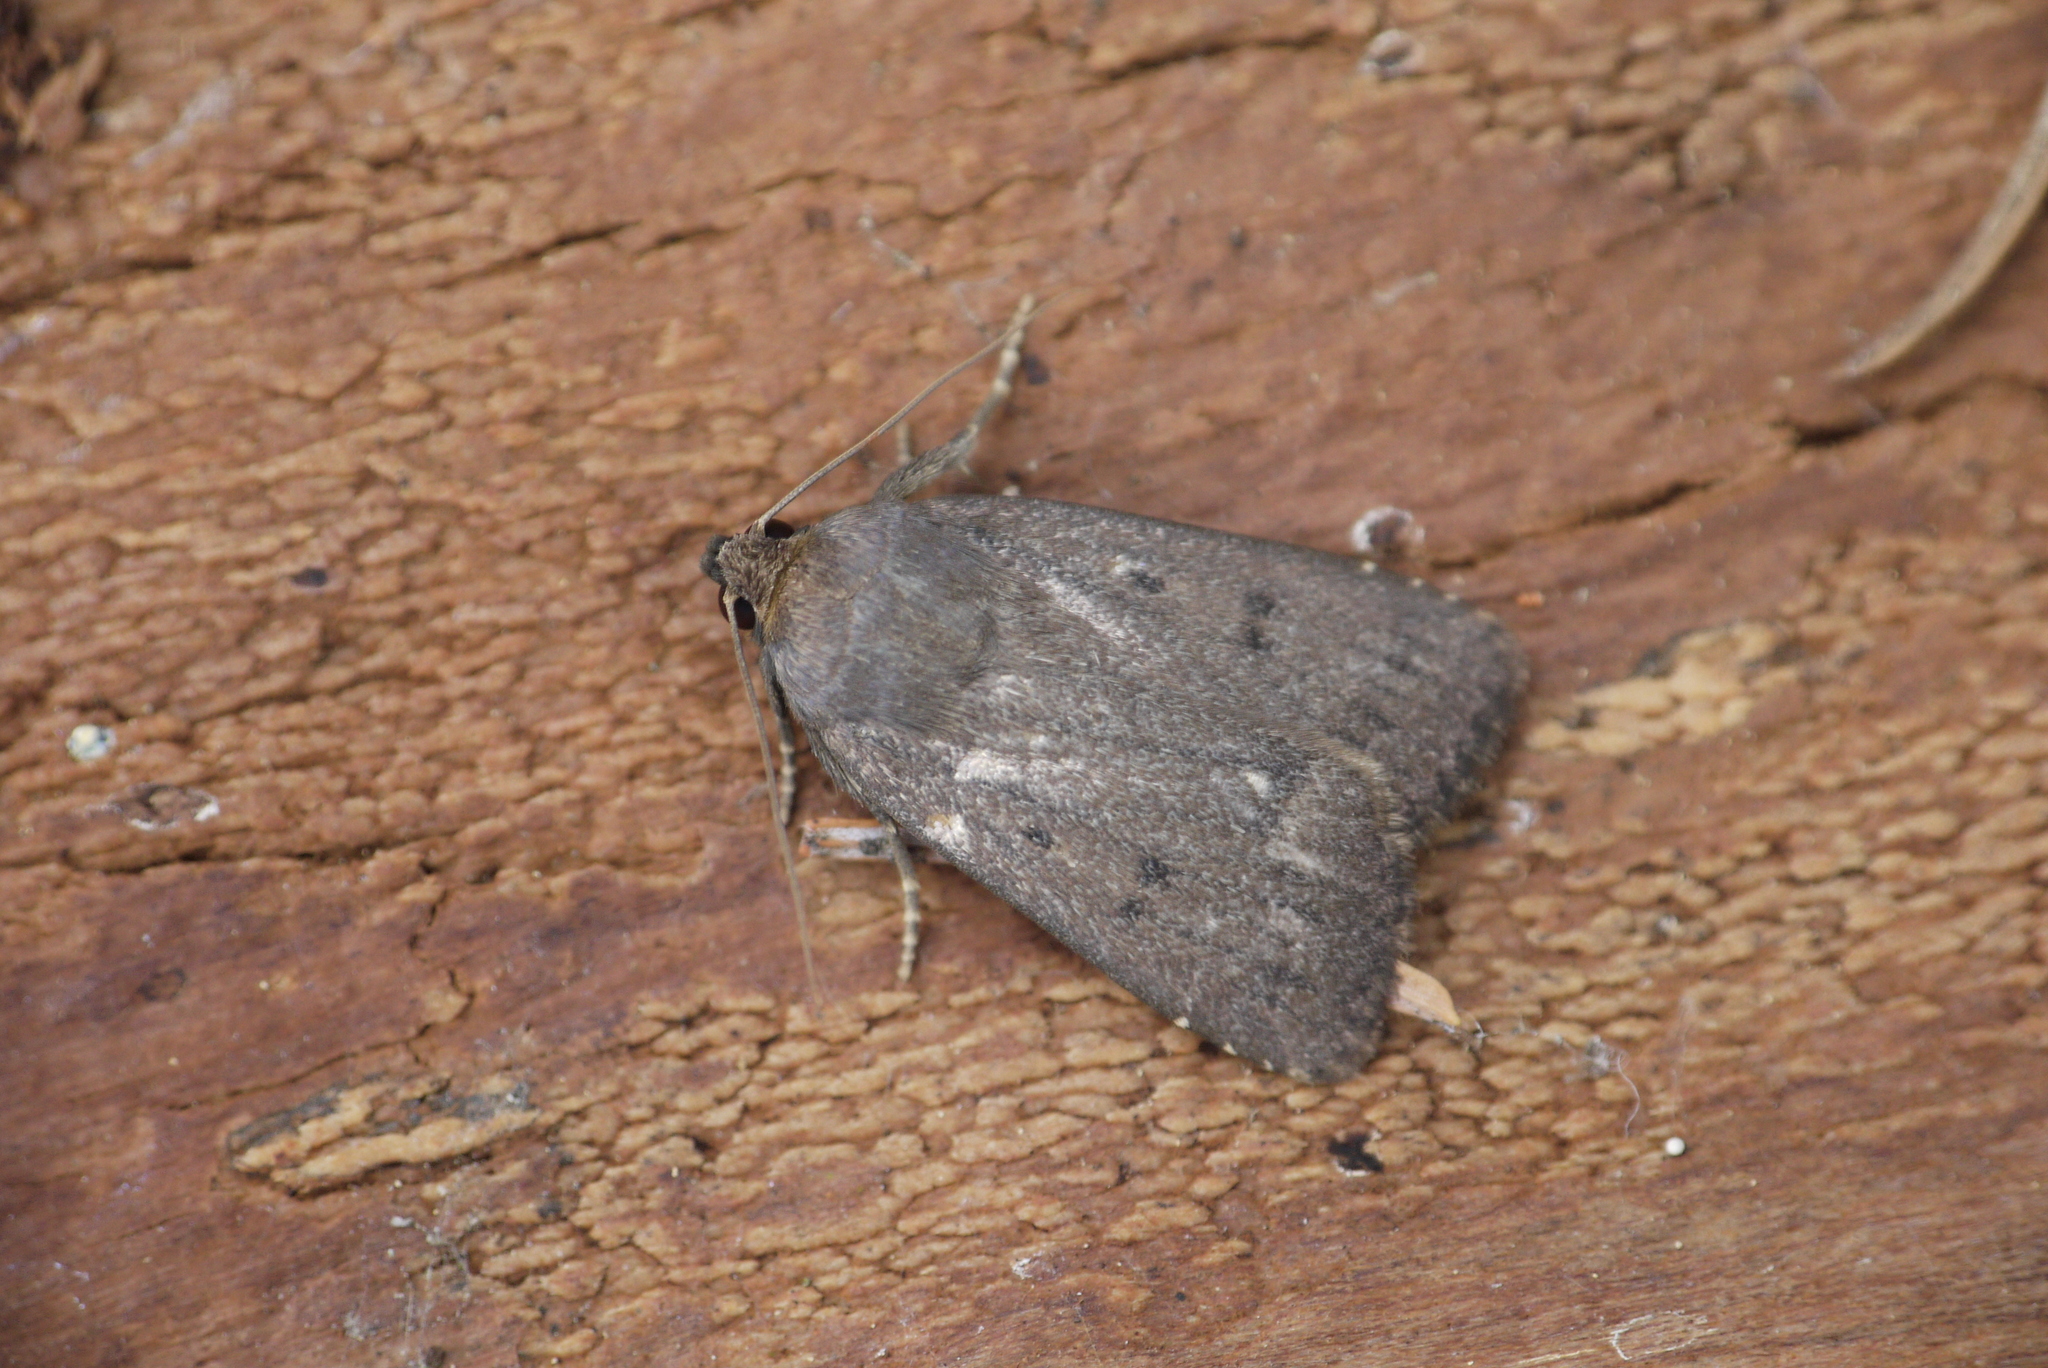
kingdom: Animalia
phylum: Arthropoda
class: Insecta
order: Lepidoptera
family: Noctuidae
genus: Amphipyra
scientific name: Amphipyra tragopoginis
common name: Mouse moth
